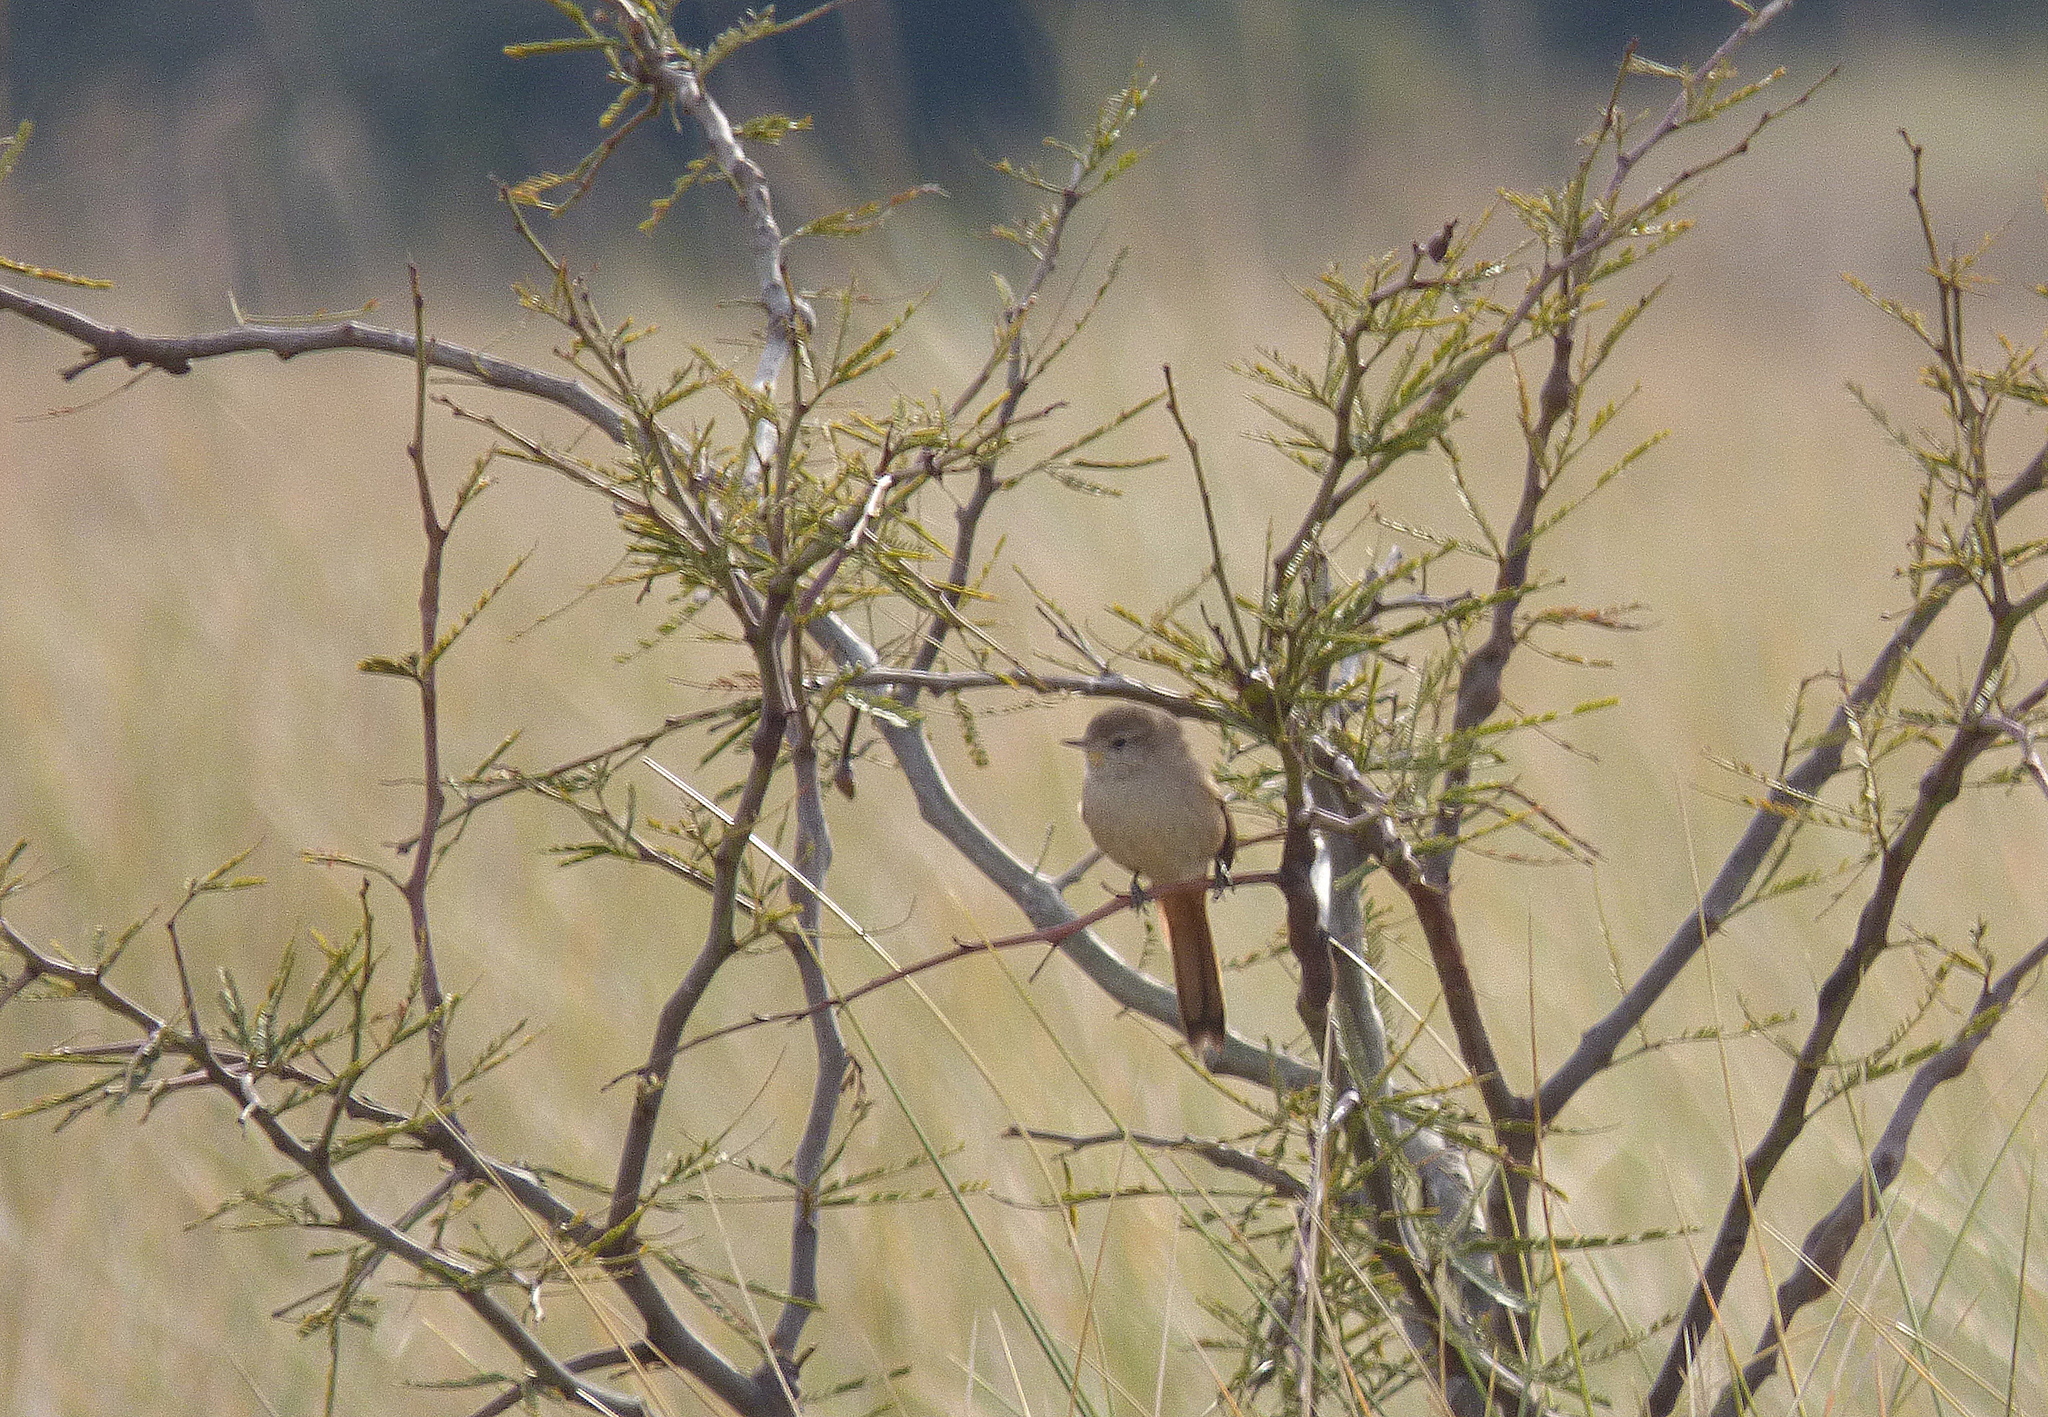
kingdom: Animalia
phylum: Chordata
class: Aves
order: Passeriformes
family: Furnariidae
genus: Asthenes
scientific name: Asthenes pyrrholeuca
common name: Sharp-billed canastero
